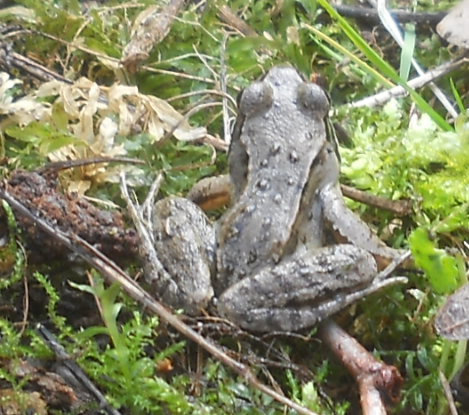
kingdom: Animalia
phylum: Chordata
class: Amphibia
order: Anura
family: Ranidae
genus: Rana
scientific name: Rana temporaria
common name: Common frog
